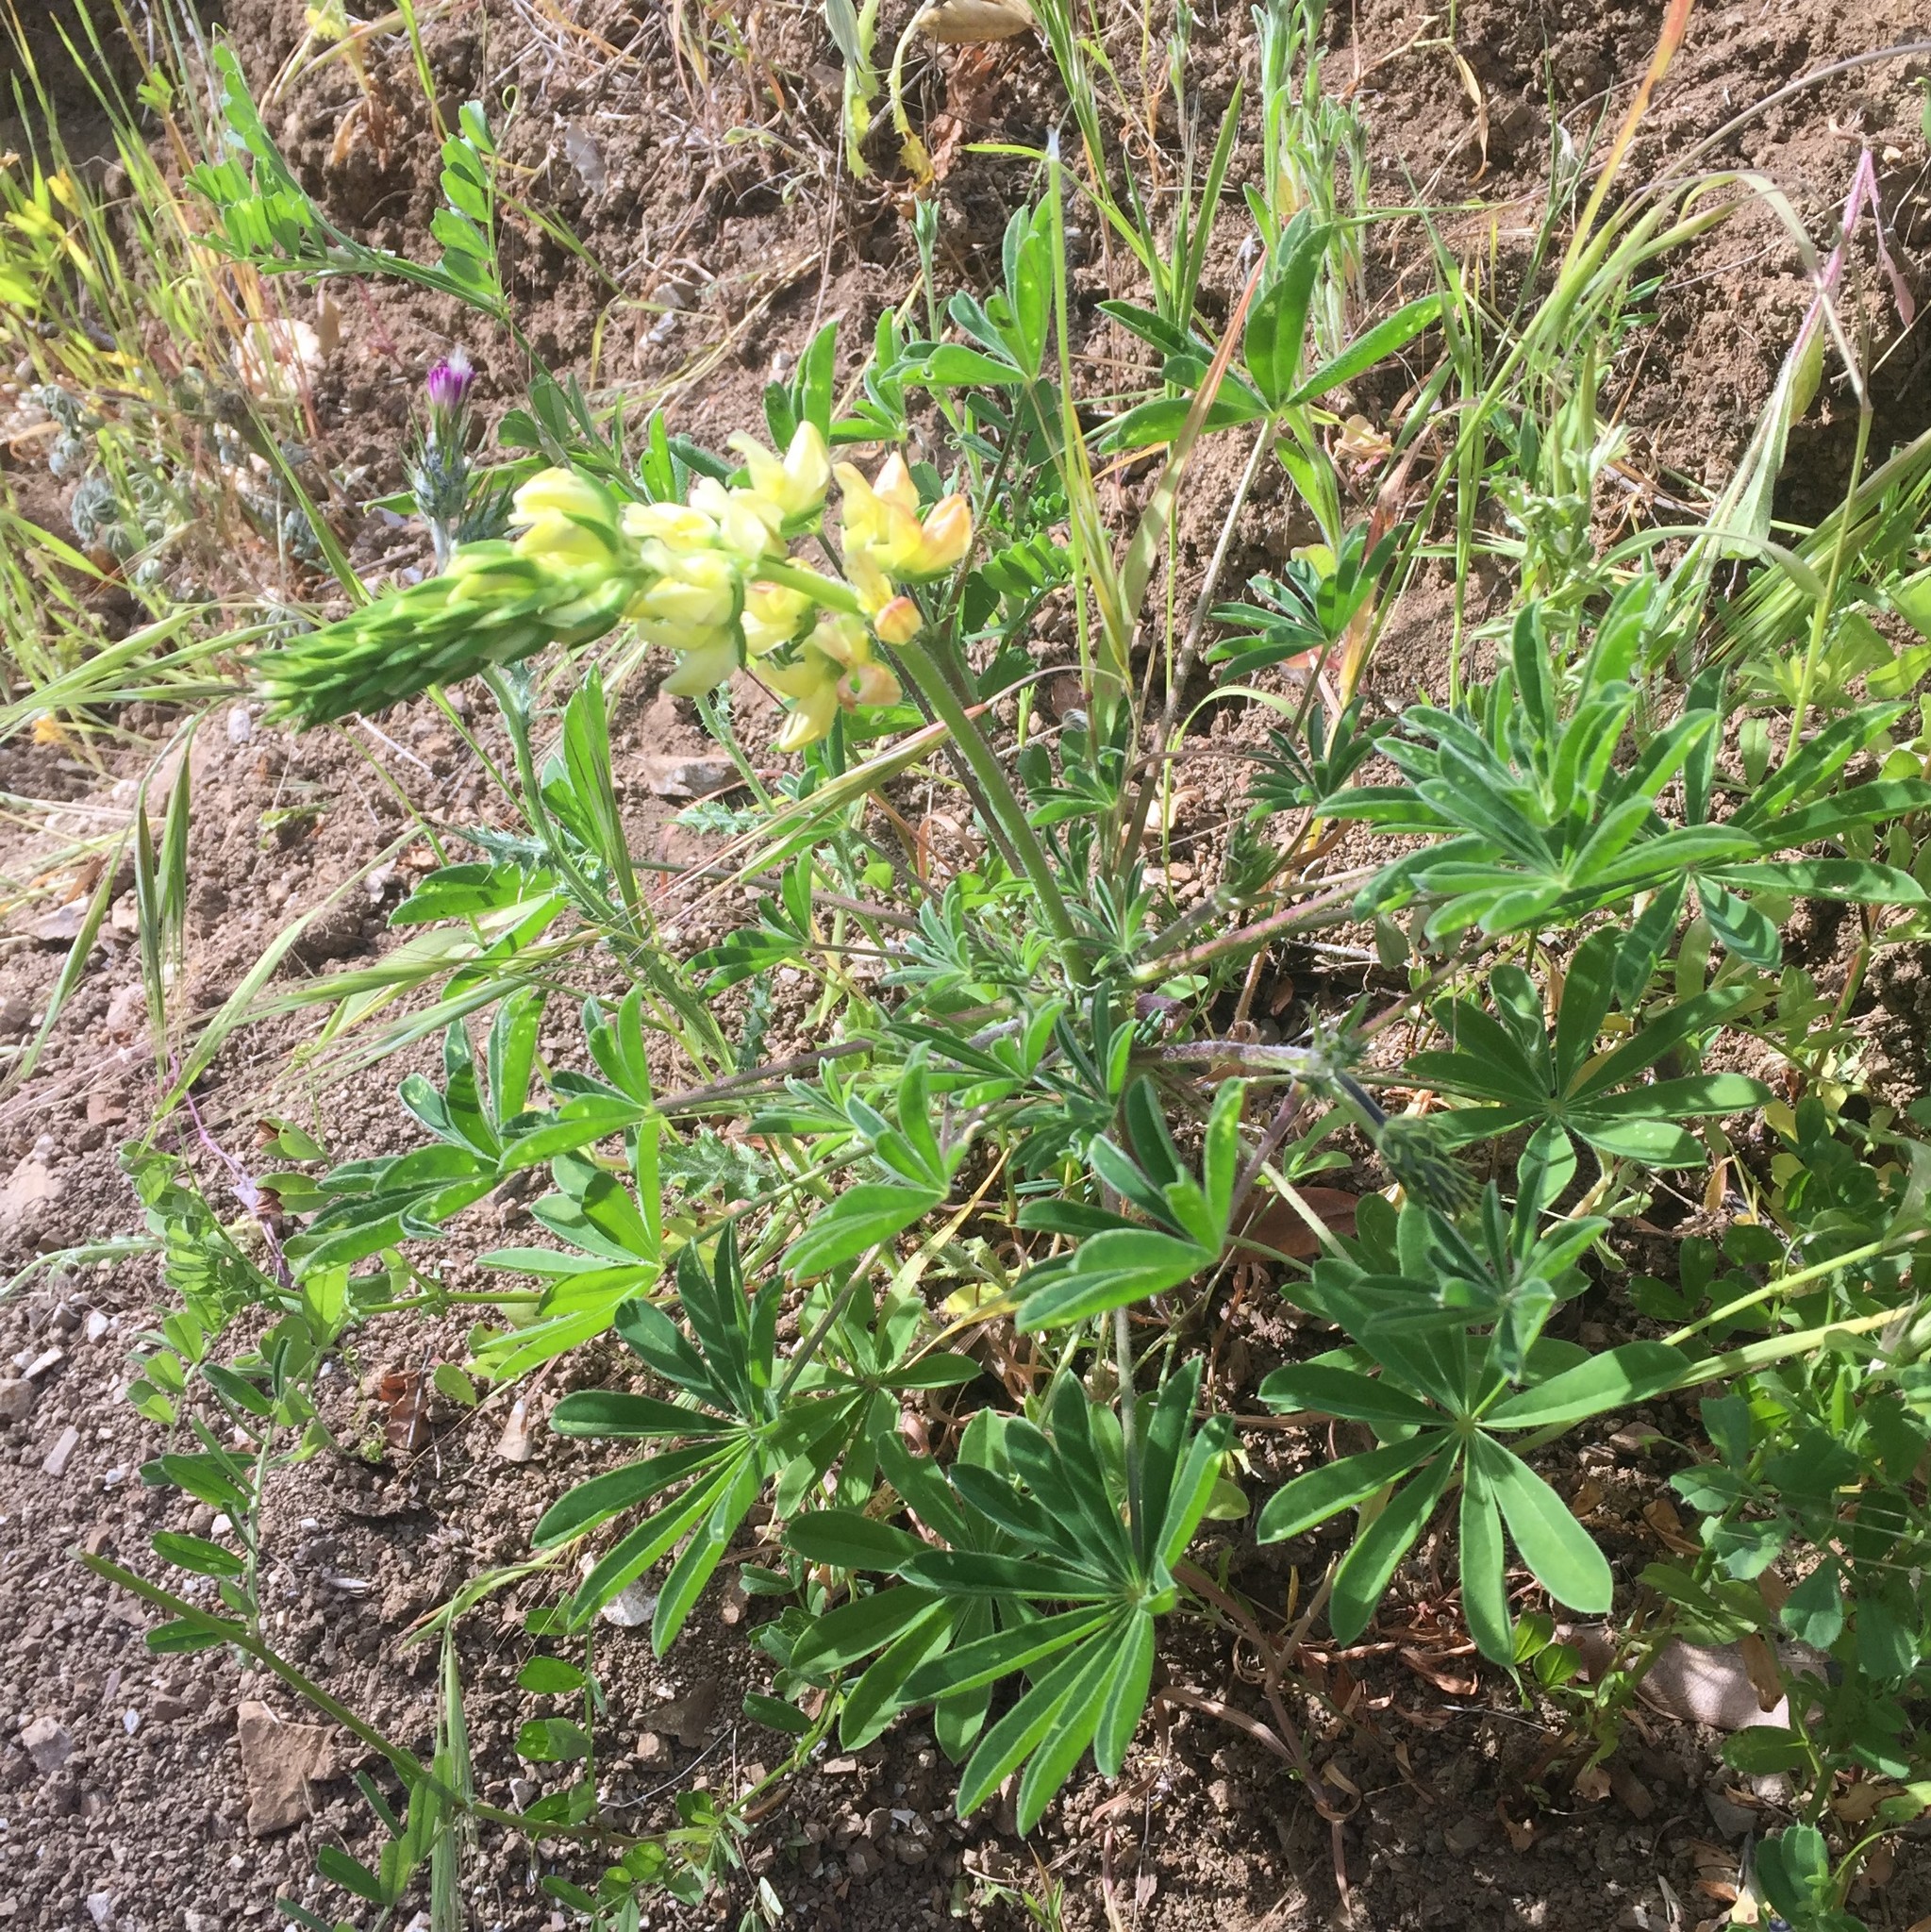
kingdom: Plantae
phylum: Tracheophyta
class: Magnoliopsida
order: Fabales
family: Fabaceae
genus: Lupinus
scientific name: Lupinus densiflorus
